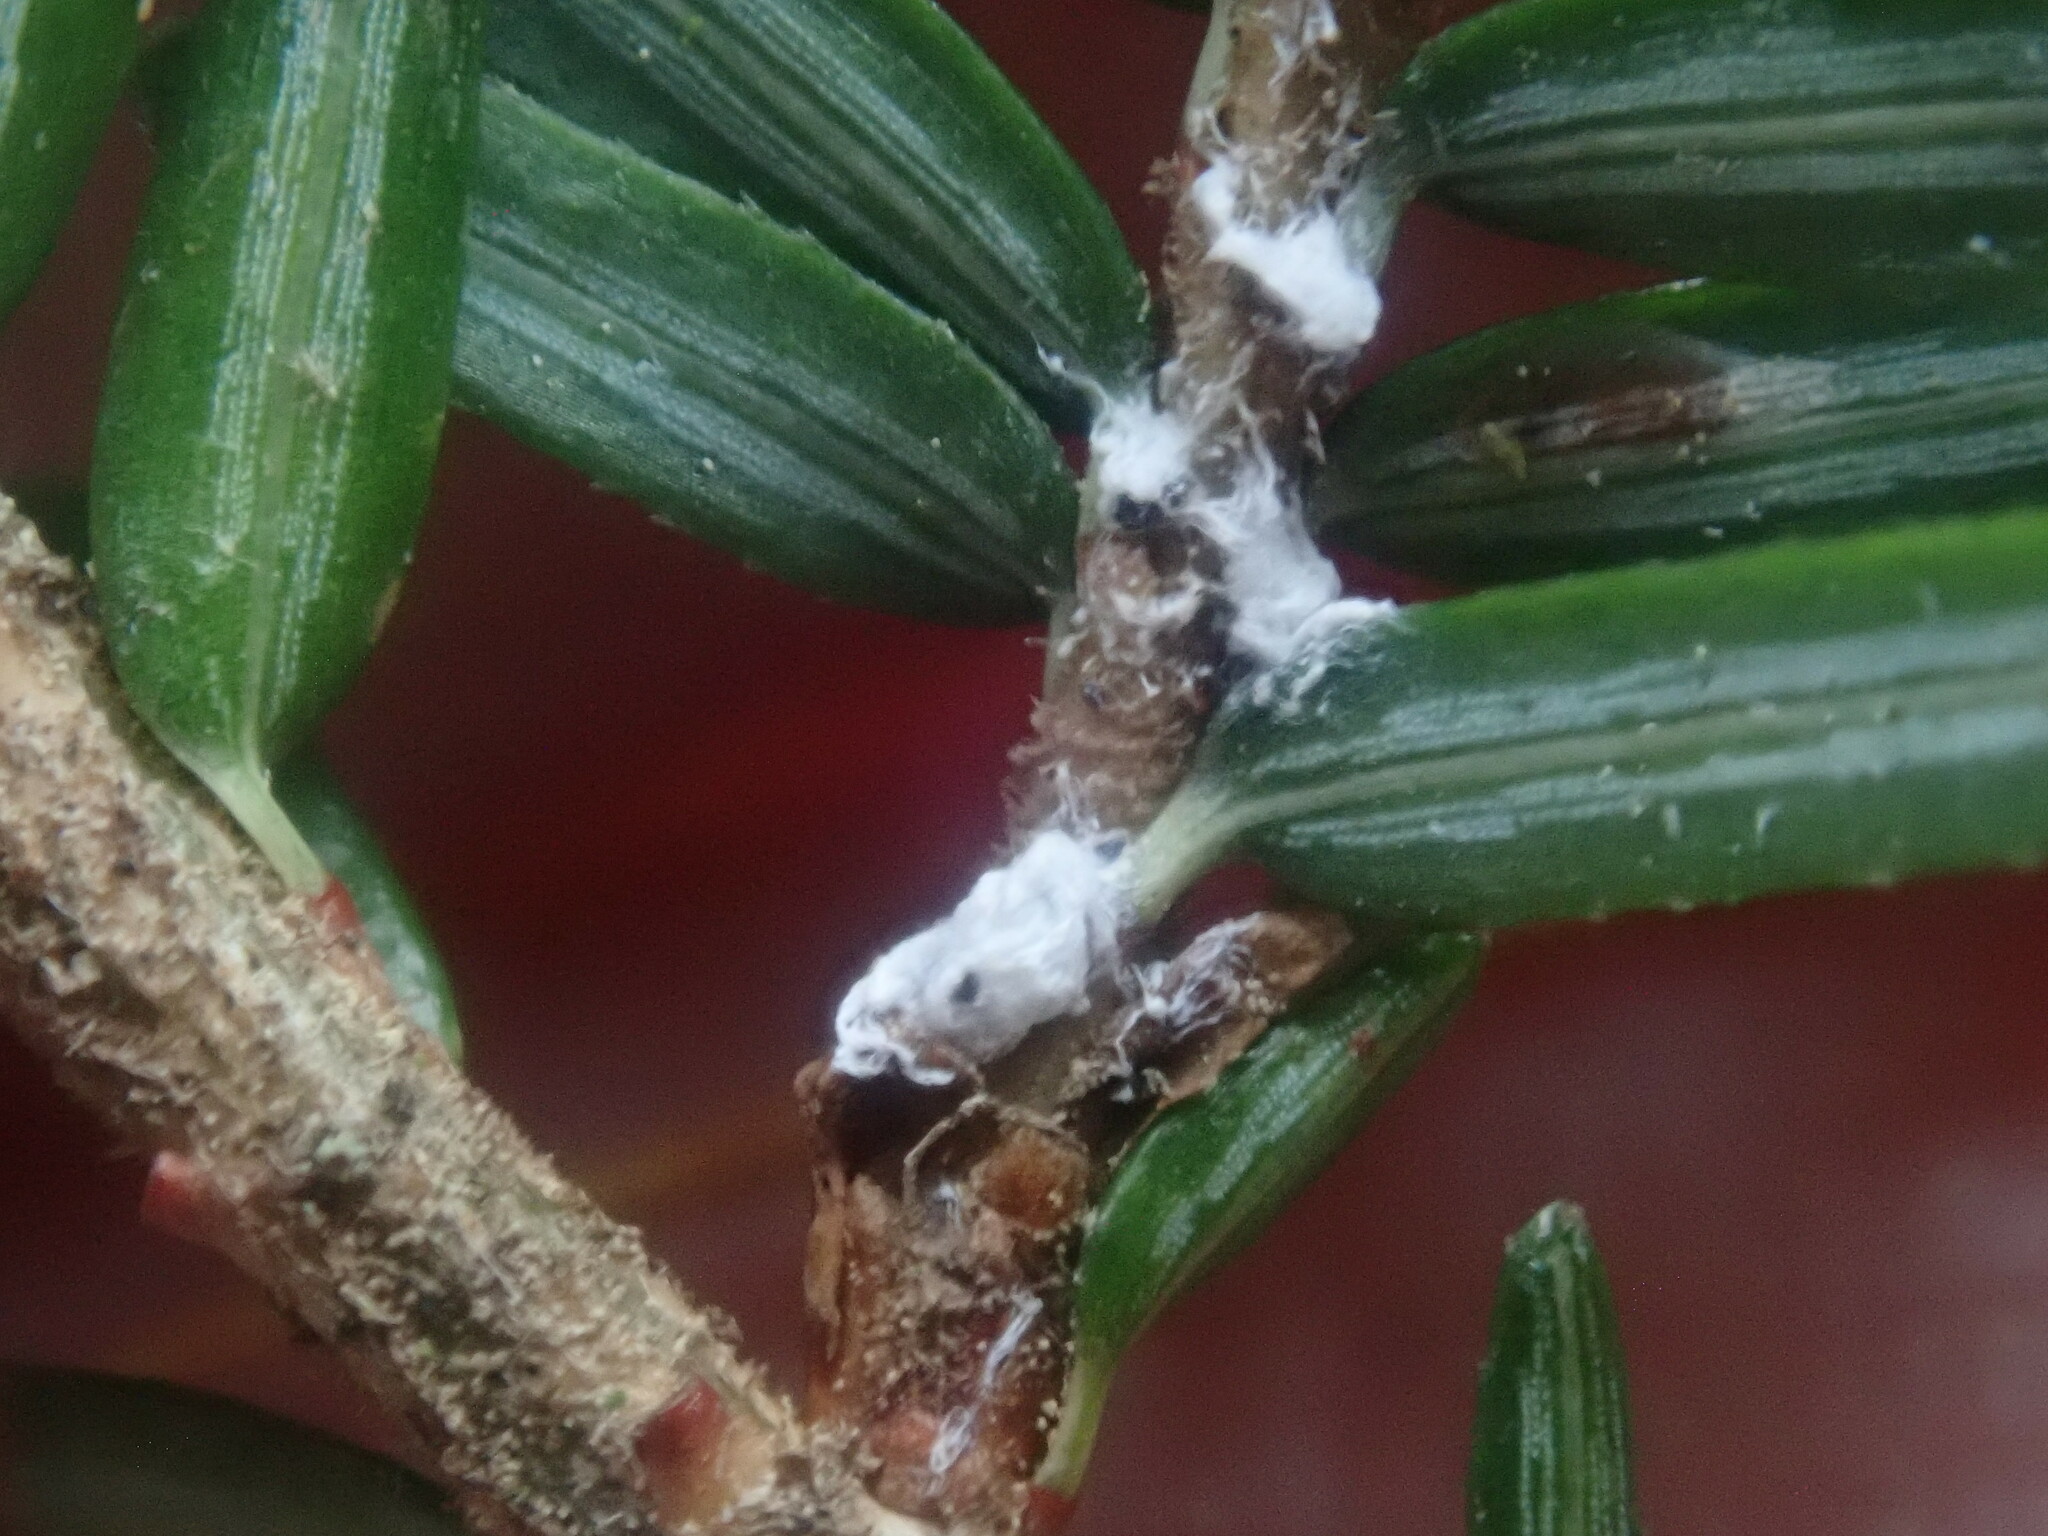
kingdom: Animalia
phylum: Arthropoda
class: Insecta
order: Hemiptera
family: Adelgidae
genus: Adelges
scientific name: Adelges tsugae
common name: Hemlock woolly adelgid
